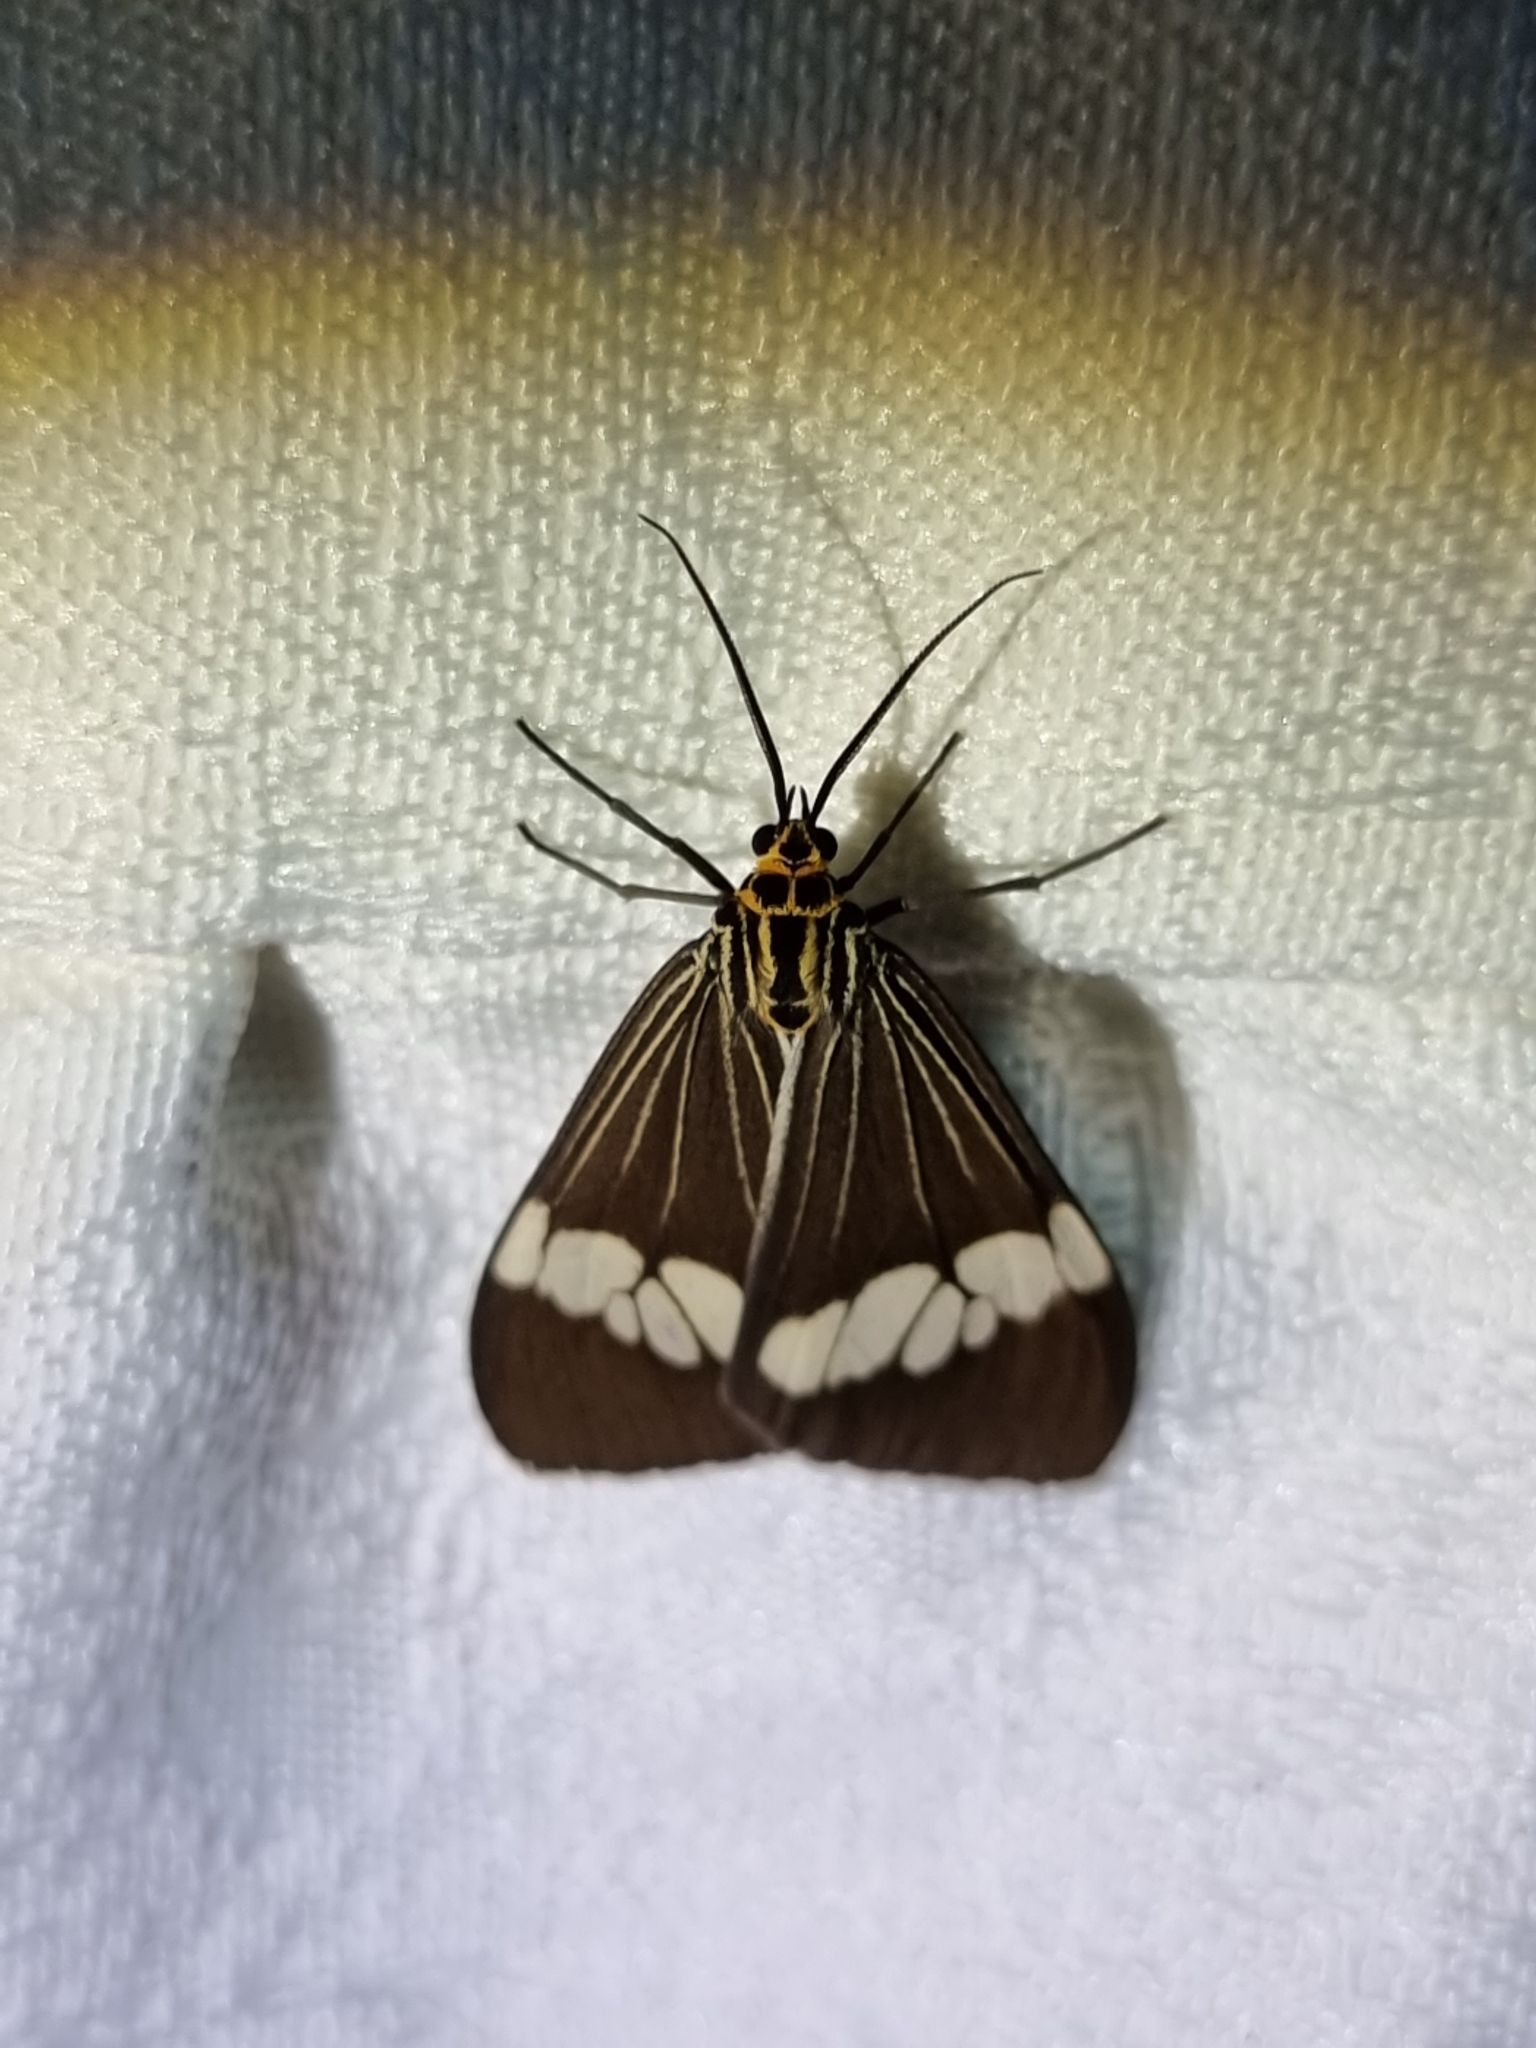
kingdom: Animalia
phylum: Arthropoda
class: Insecta
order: Lepidoptera
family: Erebidae
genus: Nyctemera
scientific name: Nyctemera baulus
